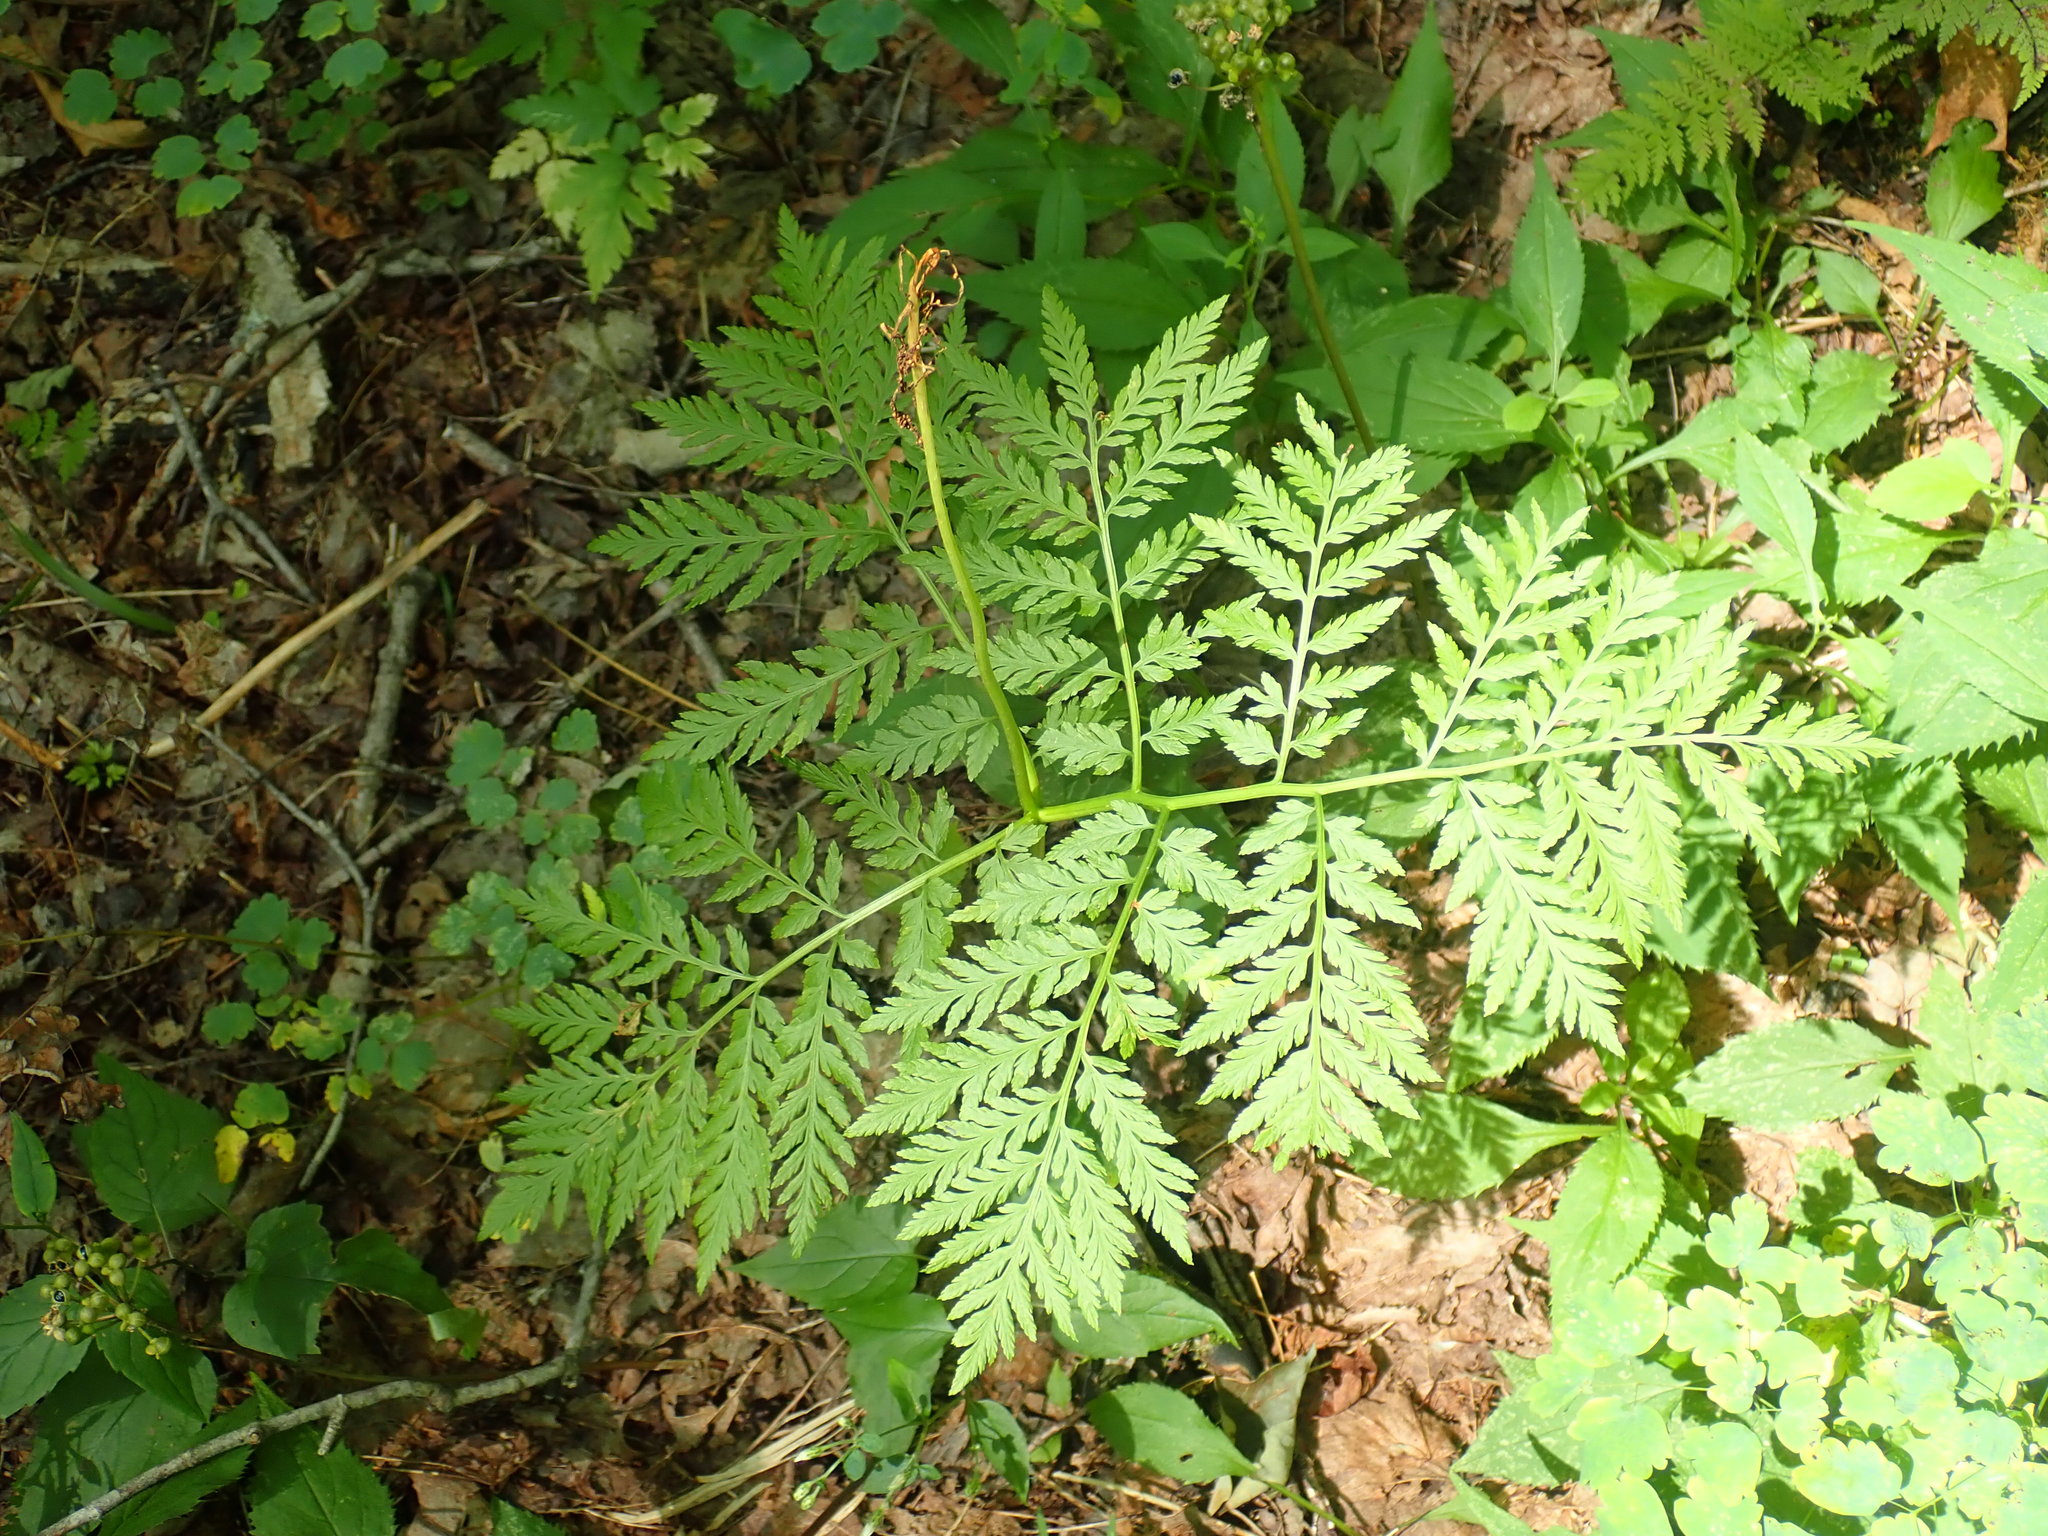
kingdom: Plantae
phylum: Tracheophyta
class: Polypodiopsida
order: Ophioglossales
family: Ophioglossaceae
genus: Botrypus
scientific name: Botrypus virginianus
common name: Common grapefern
